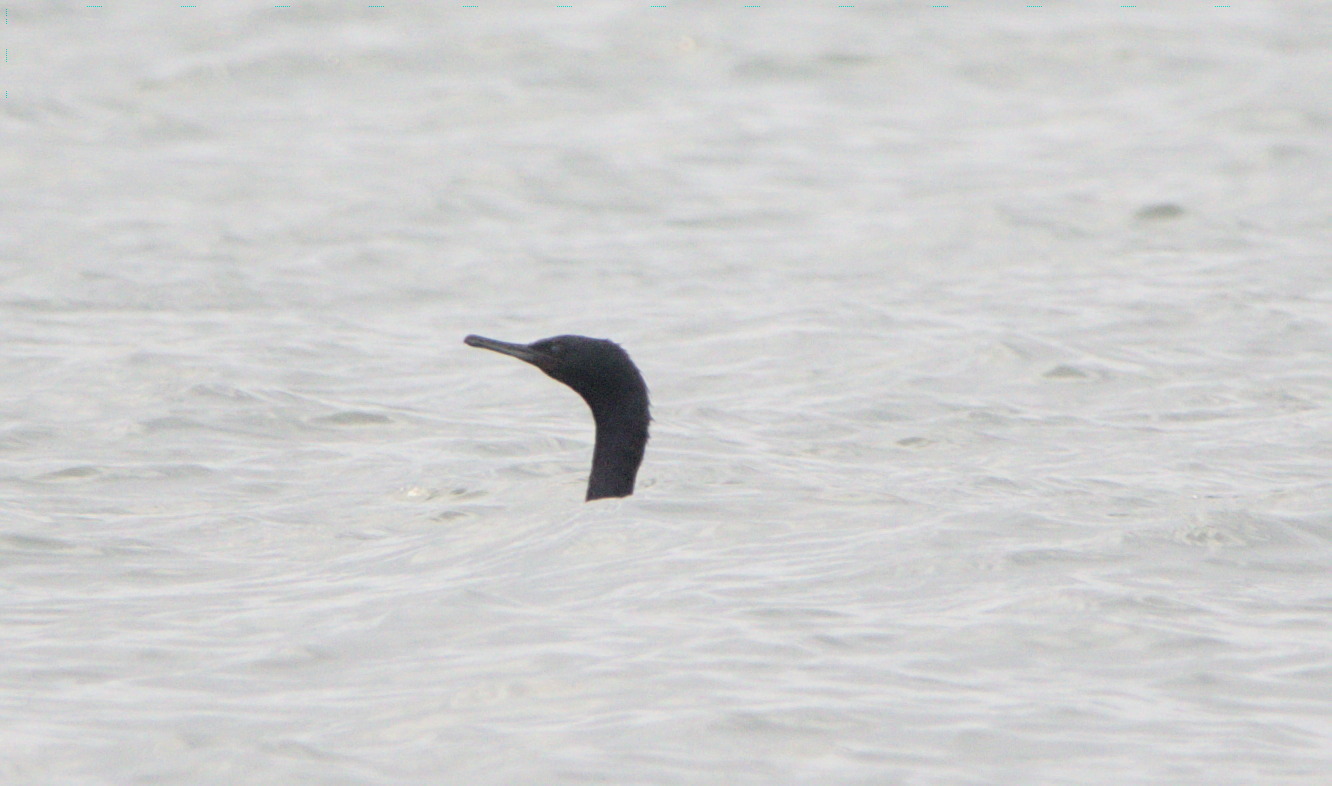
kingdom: Animalia
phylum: Chordata
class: Aves
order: Suliformes
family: Phalacrocoracidae
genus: Phalacrocorax
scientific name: Phalacrocorax pelagicus
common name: Pelagic cormorant
